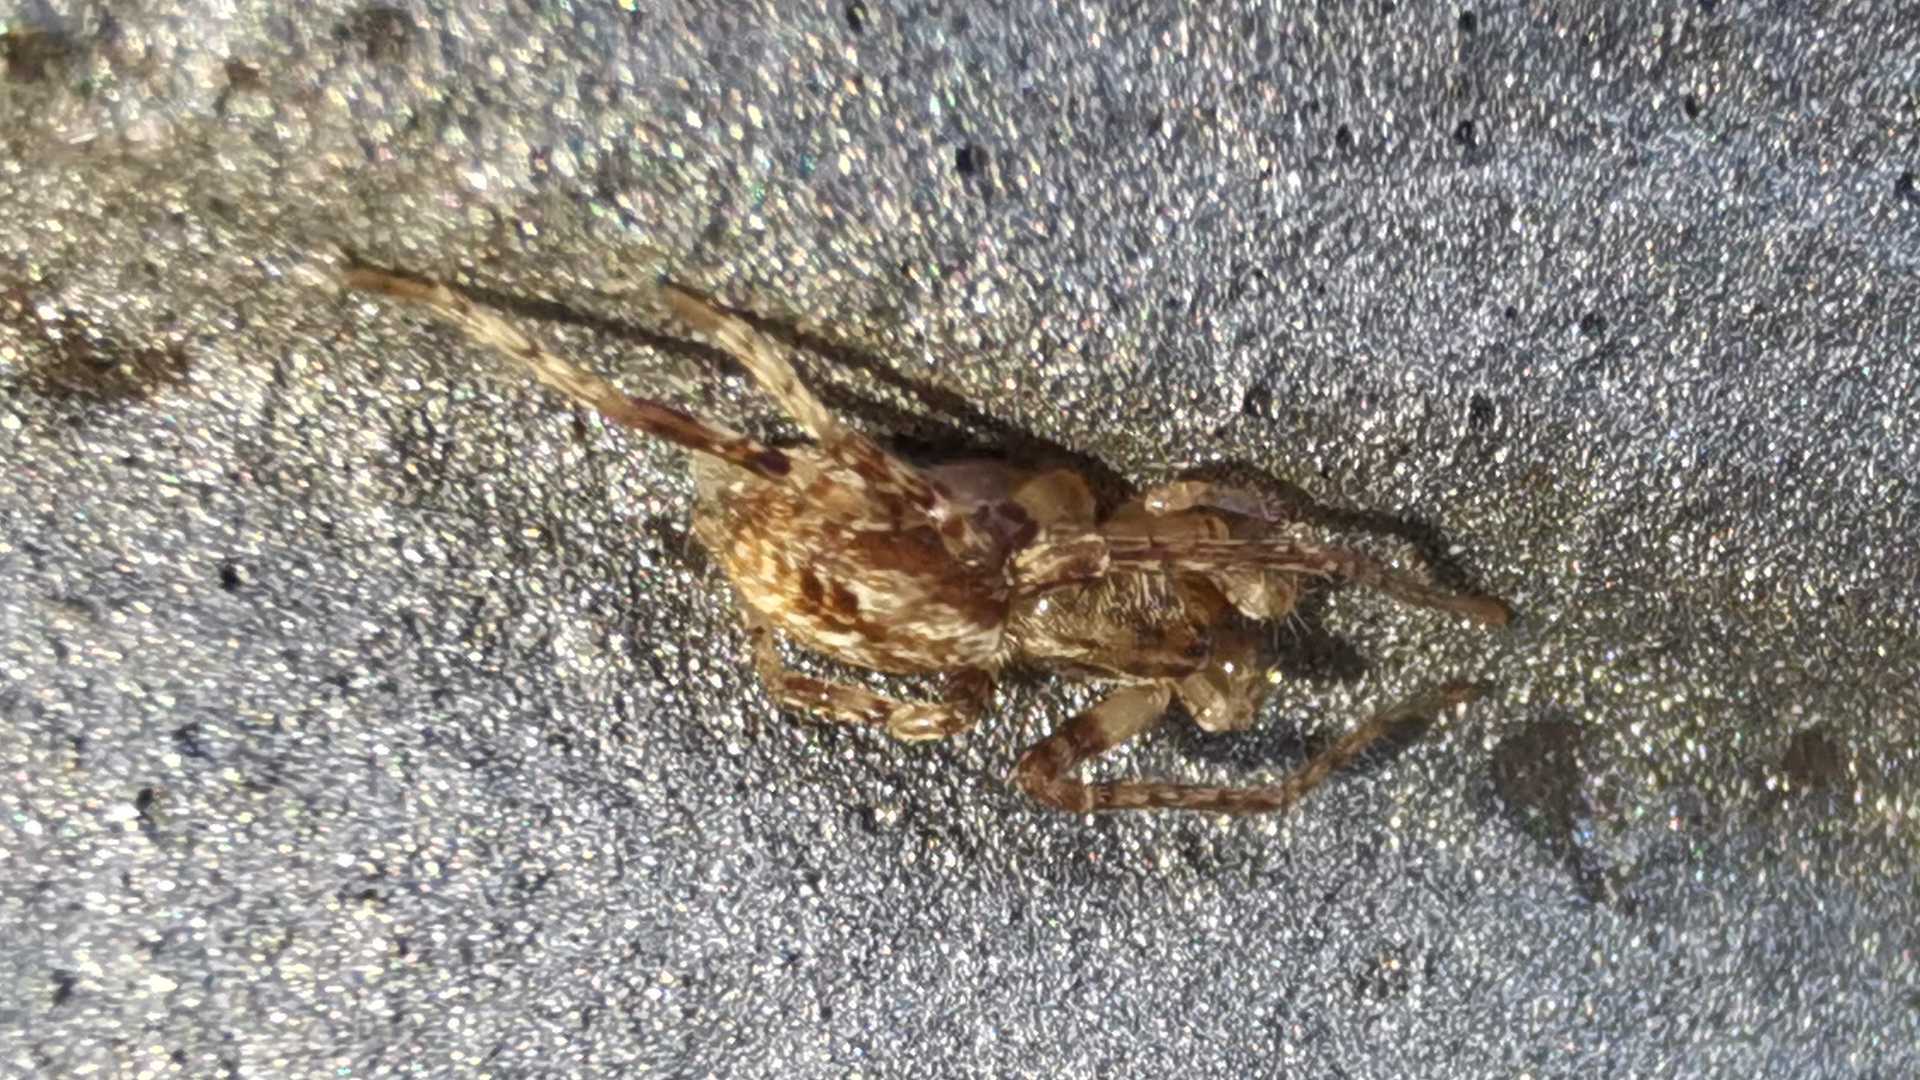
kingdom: Animalia
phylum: Arthropoda
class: Arachnida
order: Araneae
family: Anyphaenidae
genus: Anyphaena
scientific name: Anyphaena accentuata
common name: Buzzing spider
